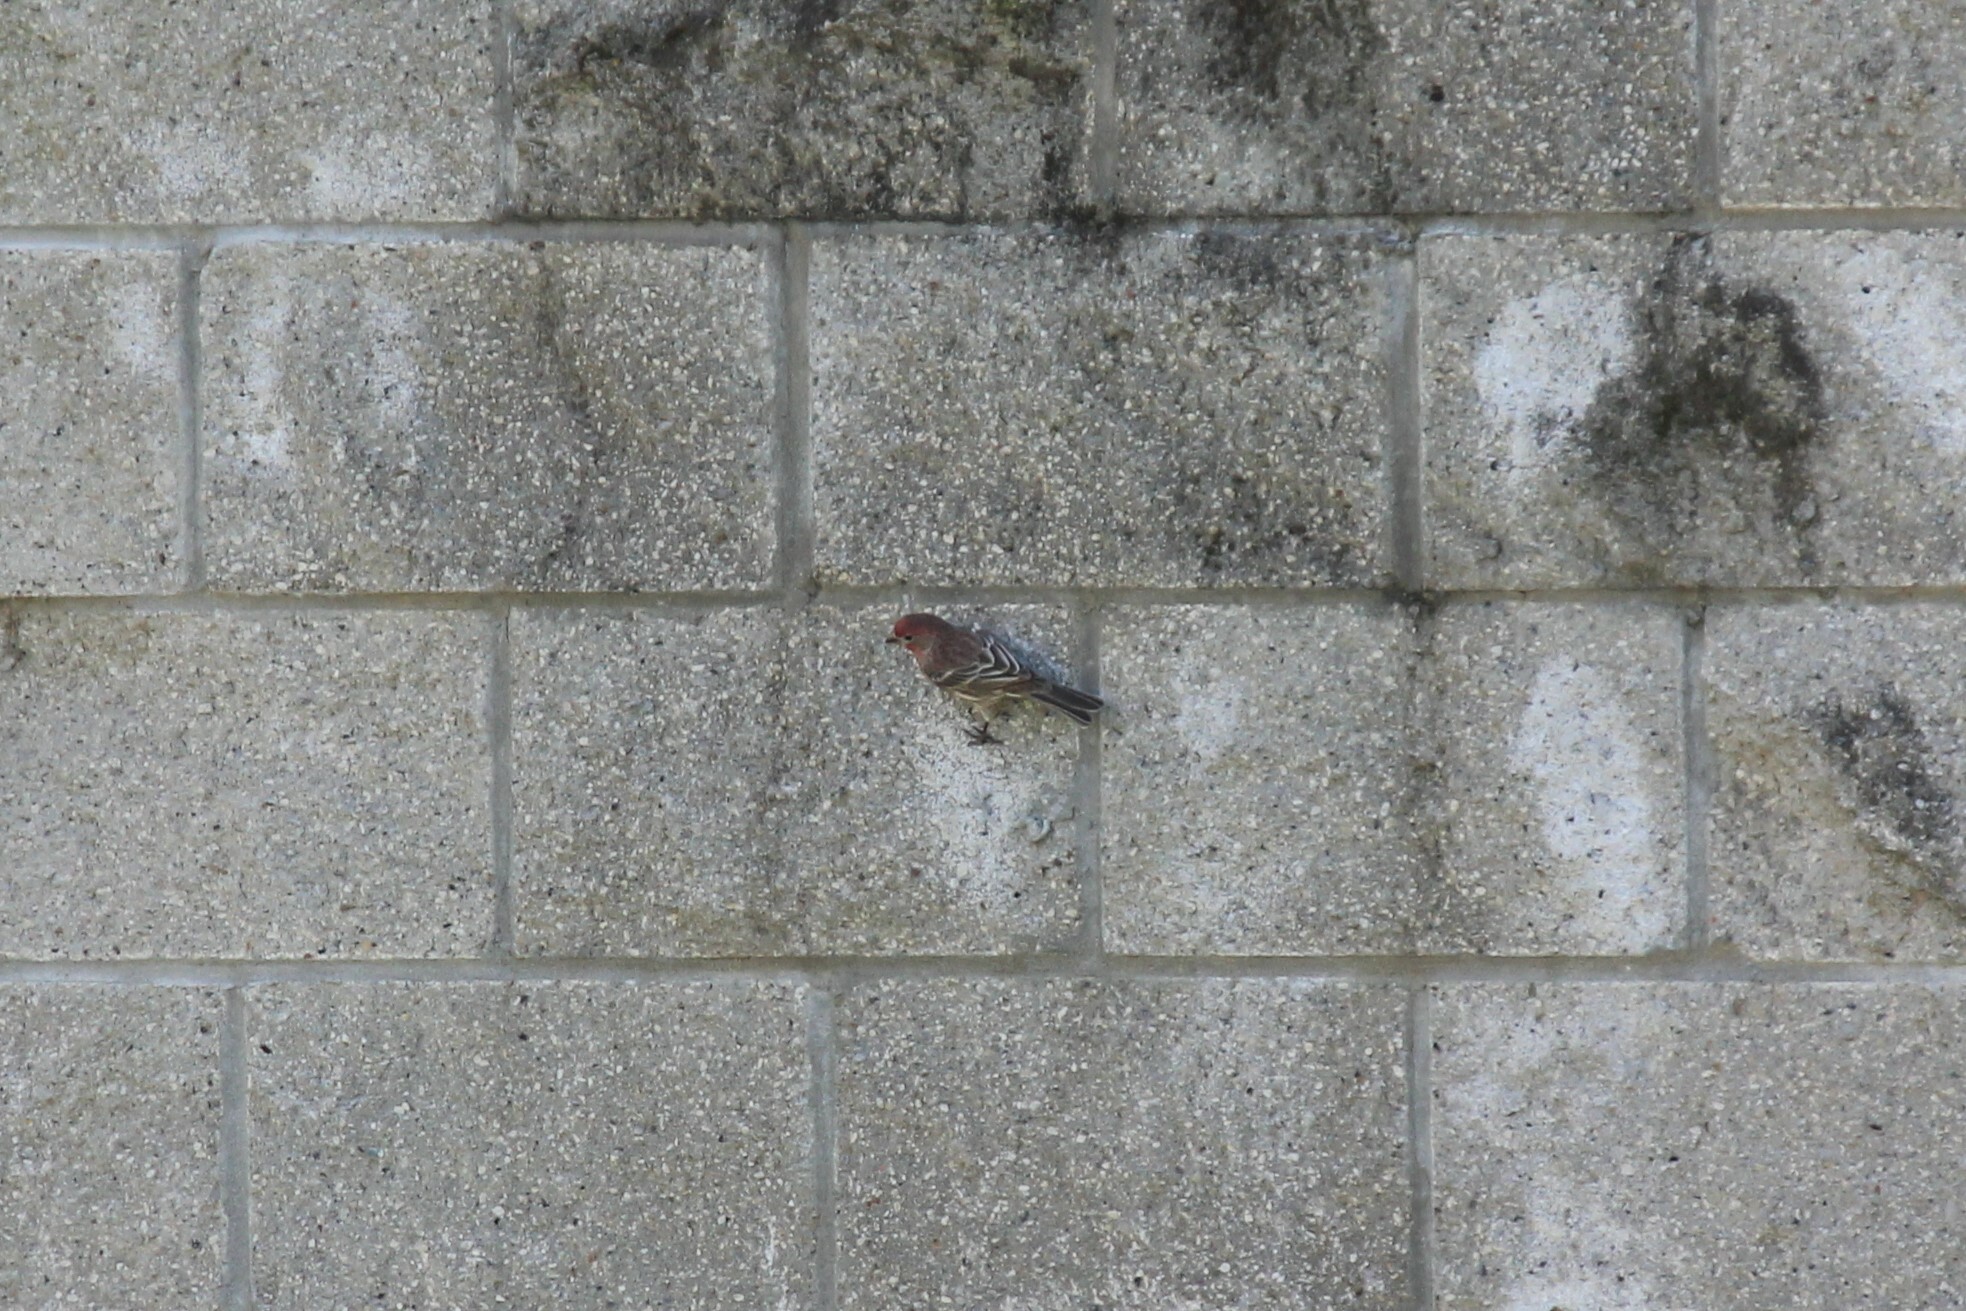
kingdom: Animalia
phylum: Chordata
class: Aves
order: Passeriformes
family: Fringillidae
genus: Haemorhous
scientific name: Haemorhous mexicanus
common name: House finch
